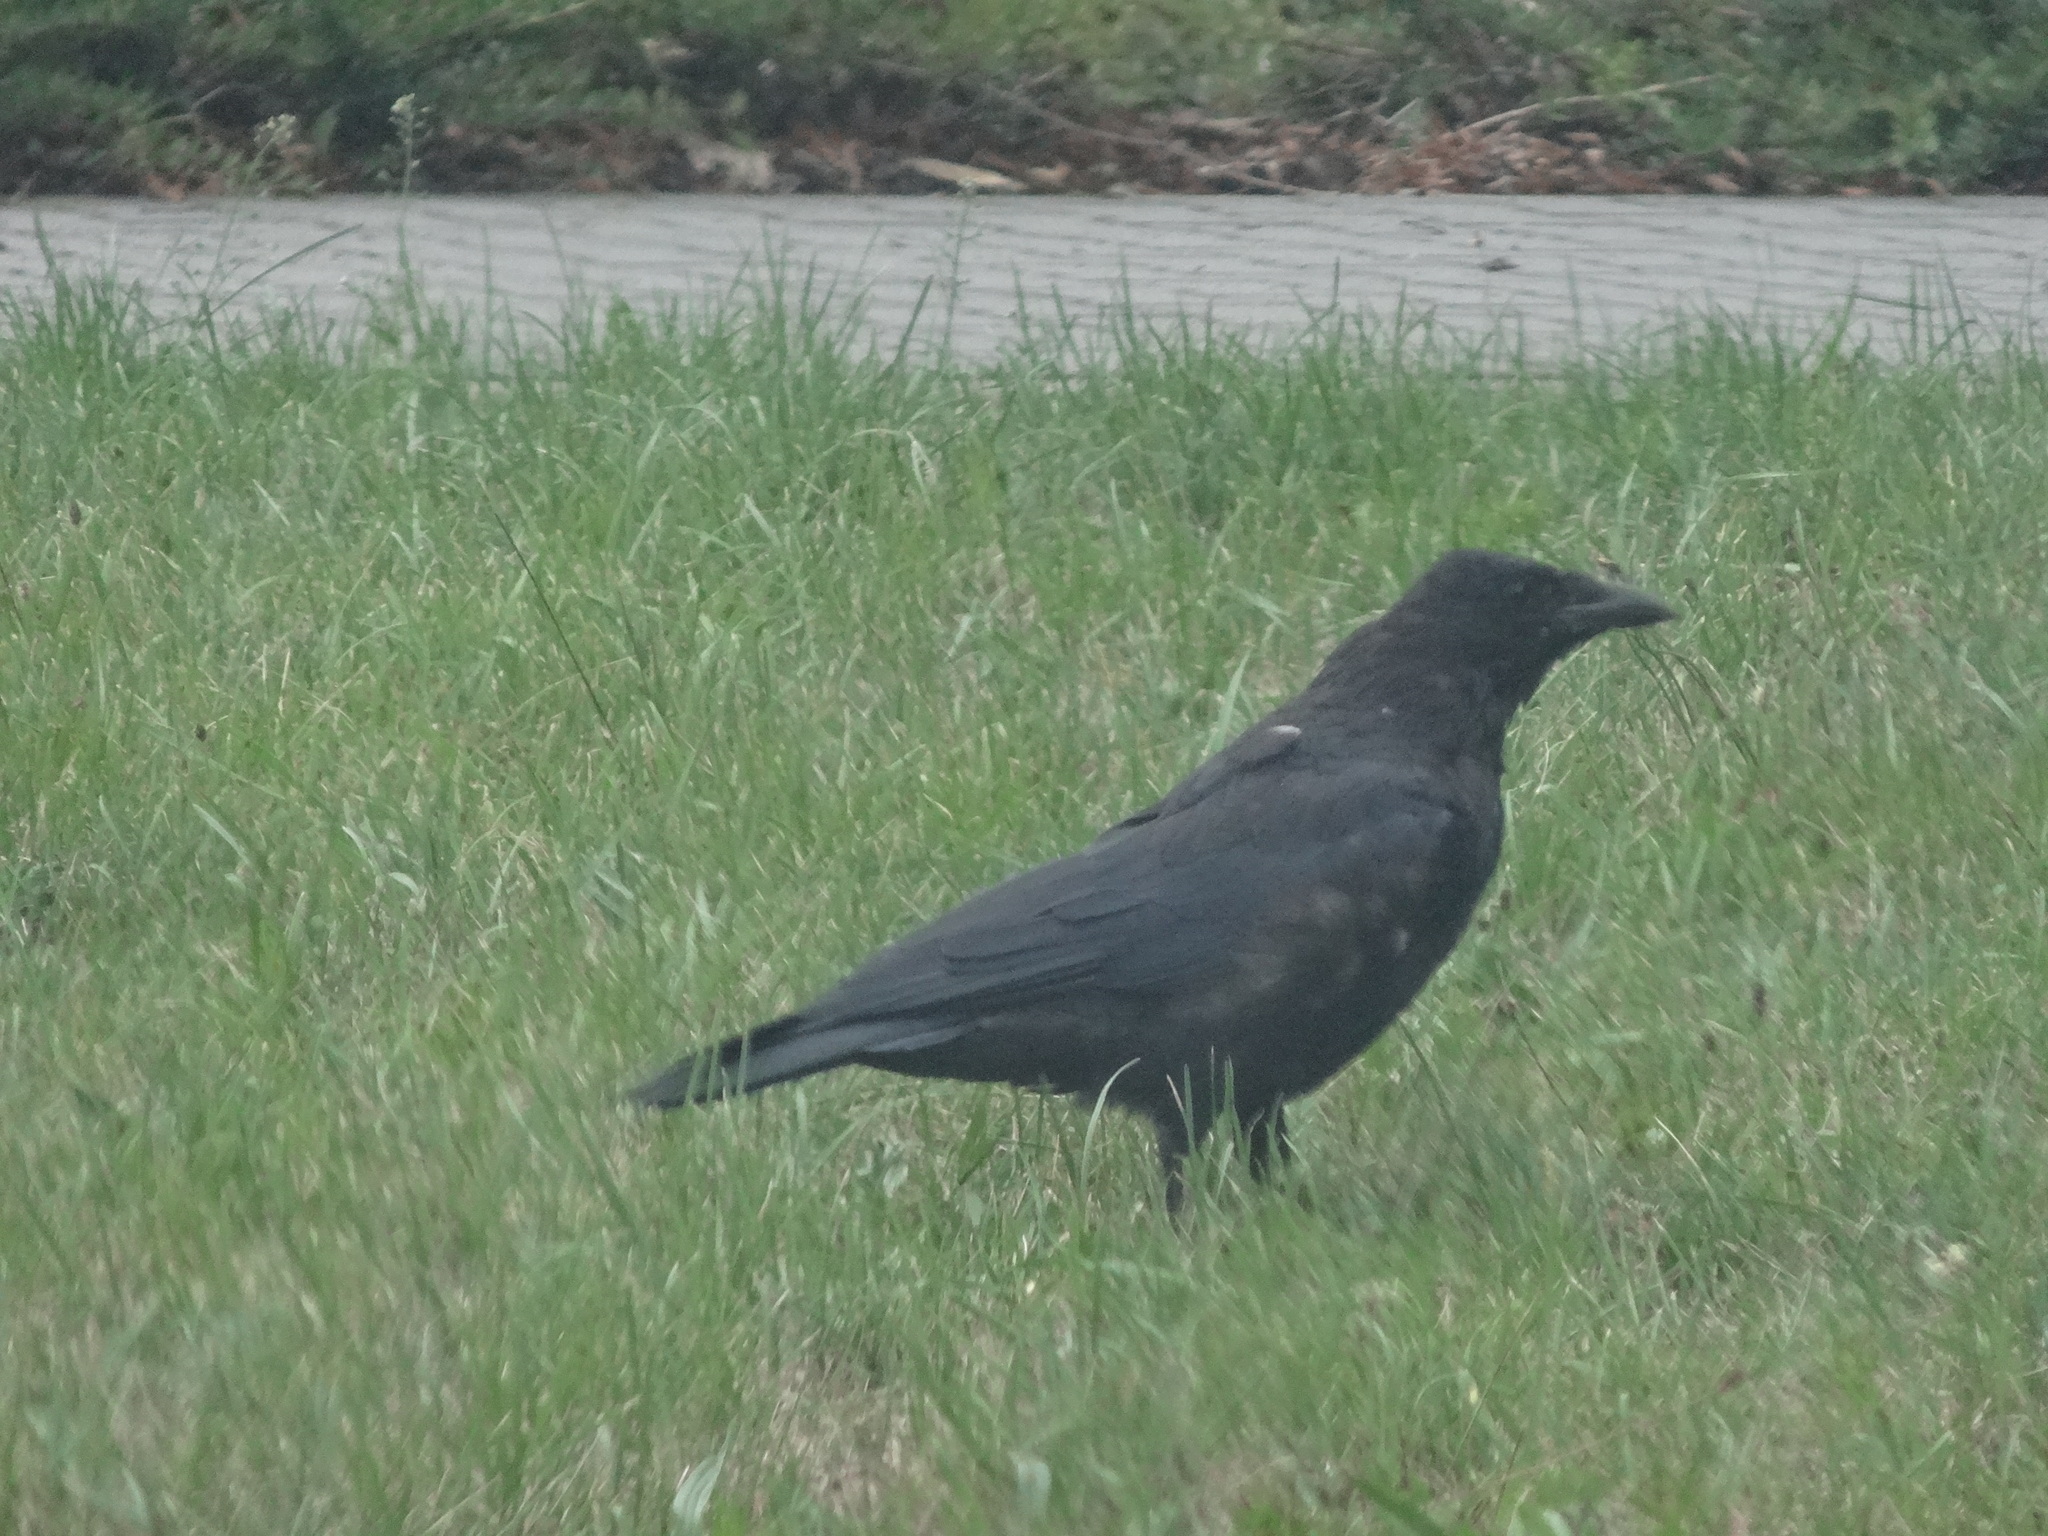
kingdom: Animalia
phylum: Chordata
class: Aves
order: Passeriformes
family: Corvidae
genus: Corvus
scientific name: Corvus corone
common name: Carrion crow
